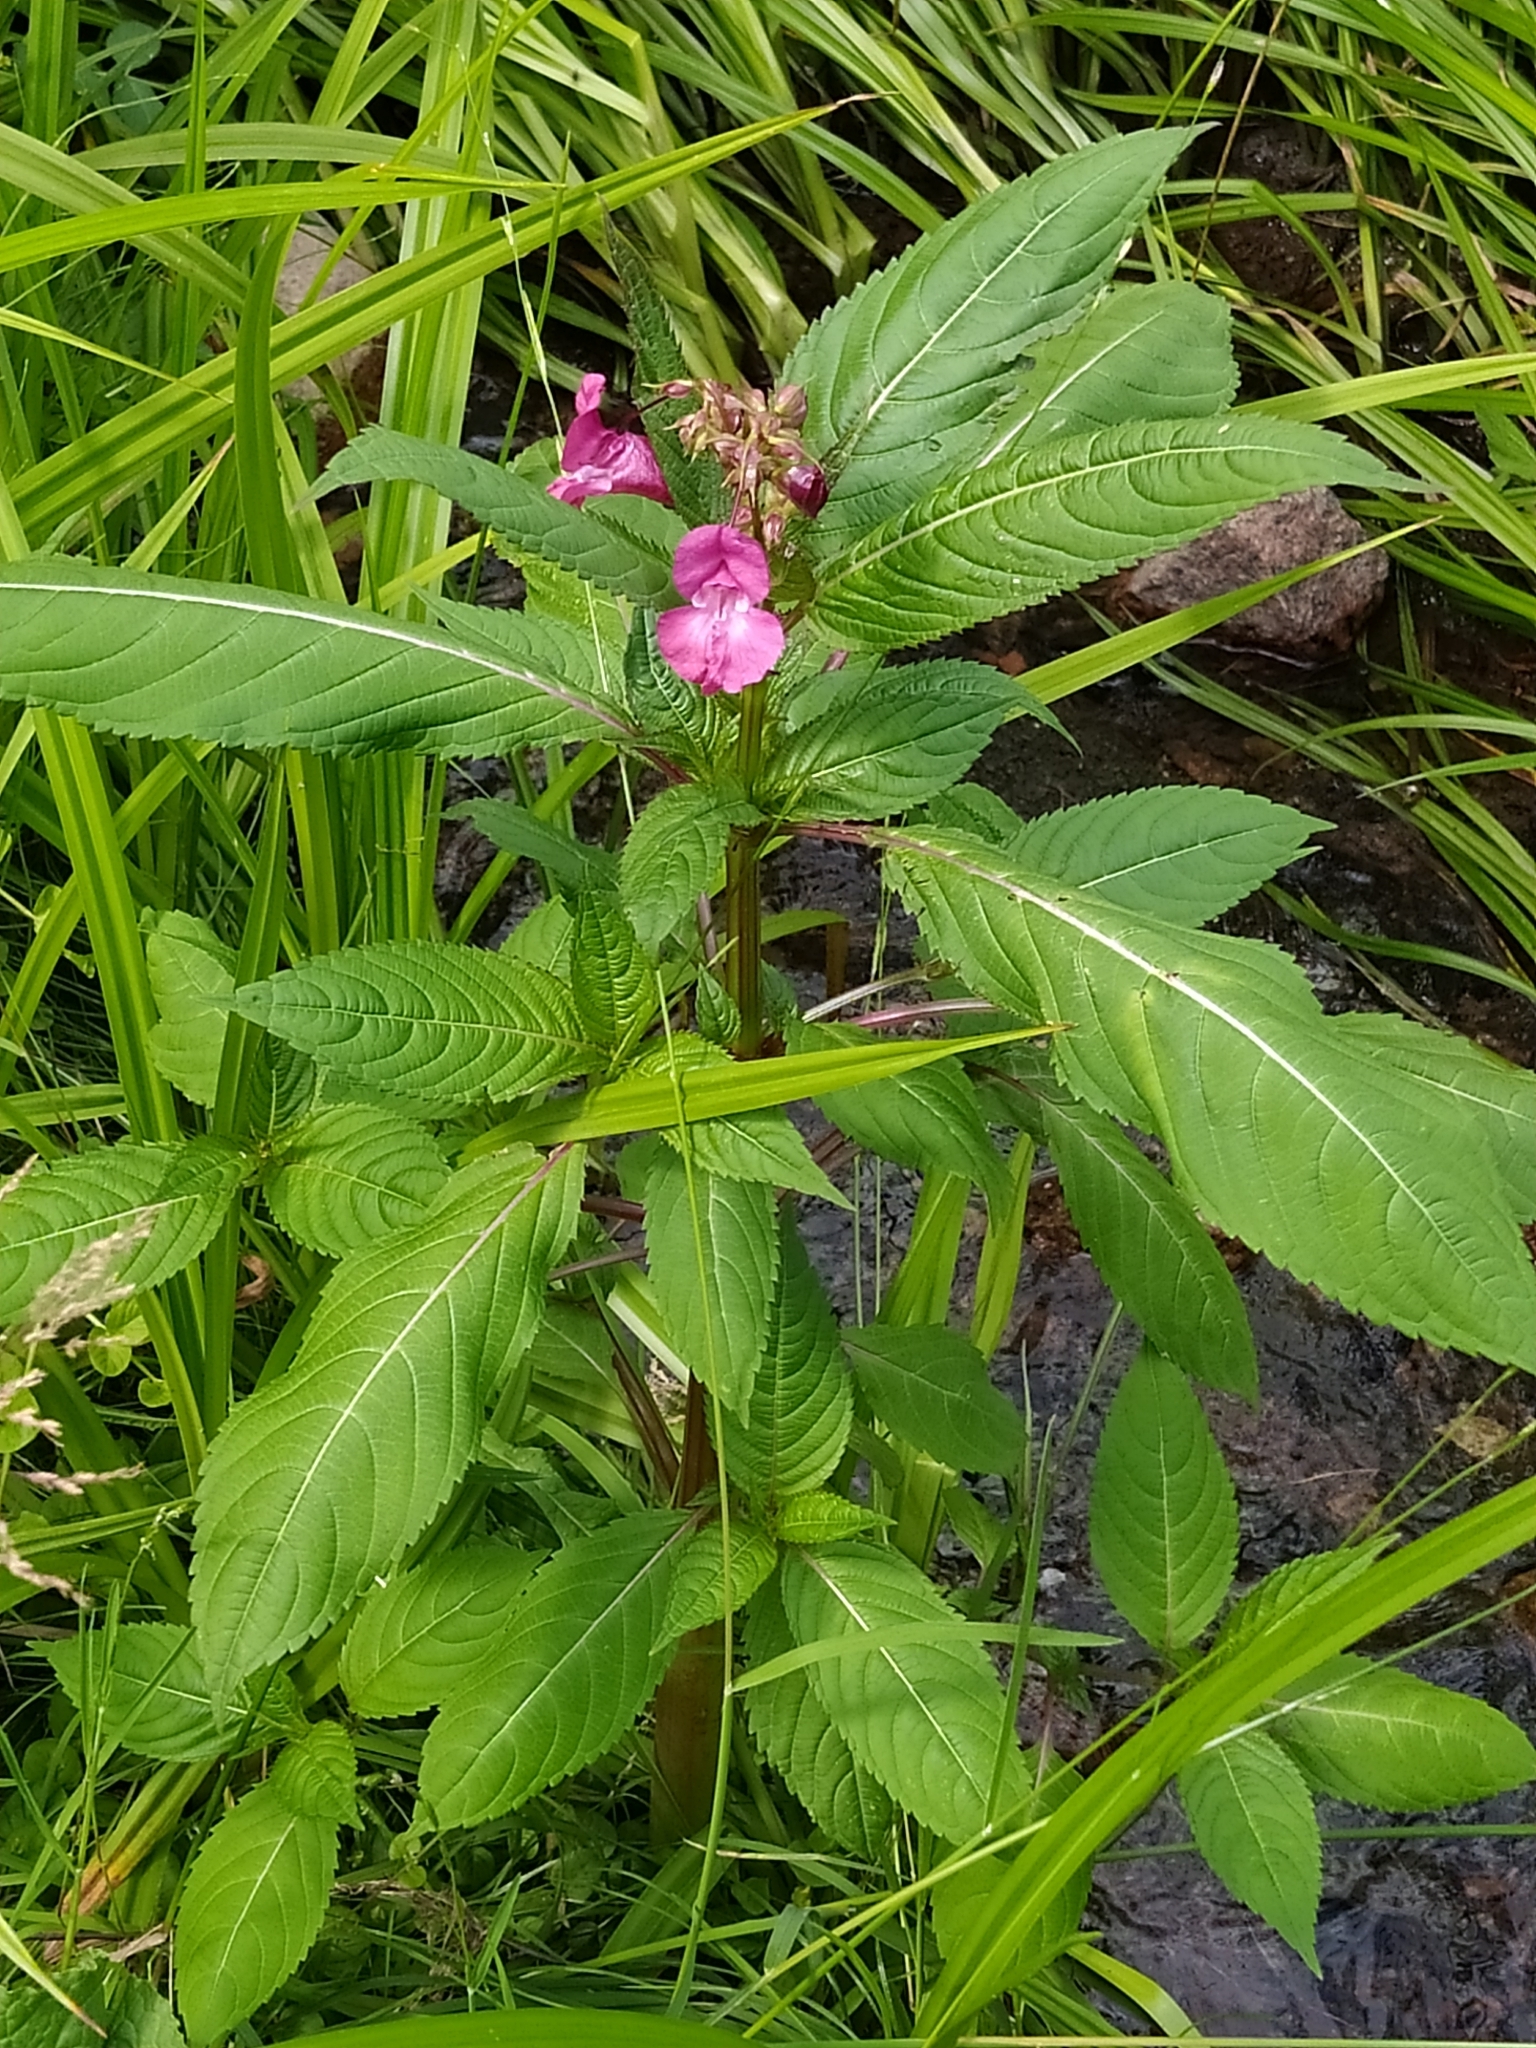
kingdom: Plantae
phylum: Tracheophyta
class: Magnoliopsida
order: Ericales
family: Balsaminaceae
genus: Impatiens
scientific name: Impatiens glandulifera
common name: Himalayan balsam
